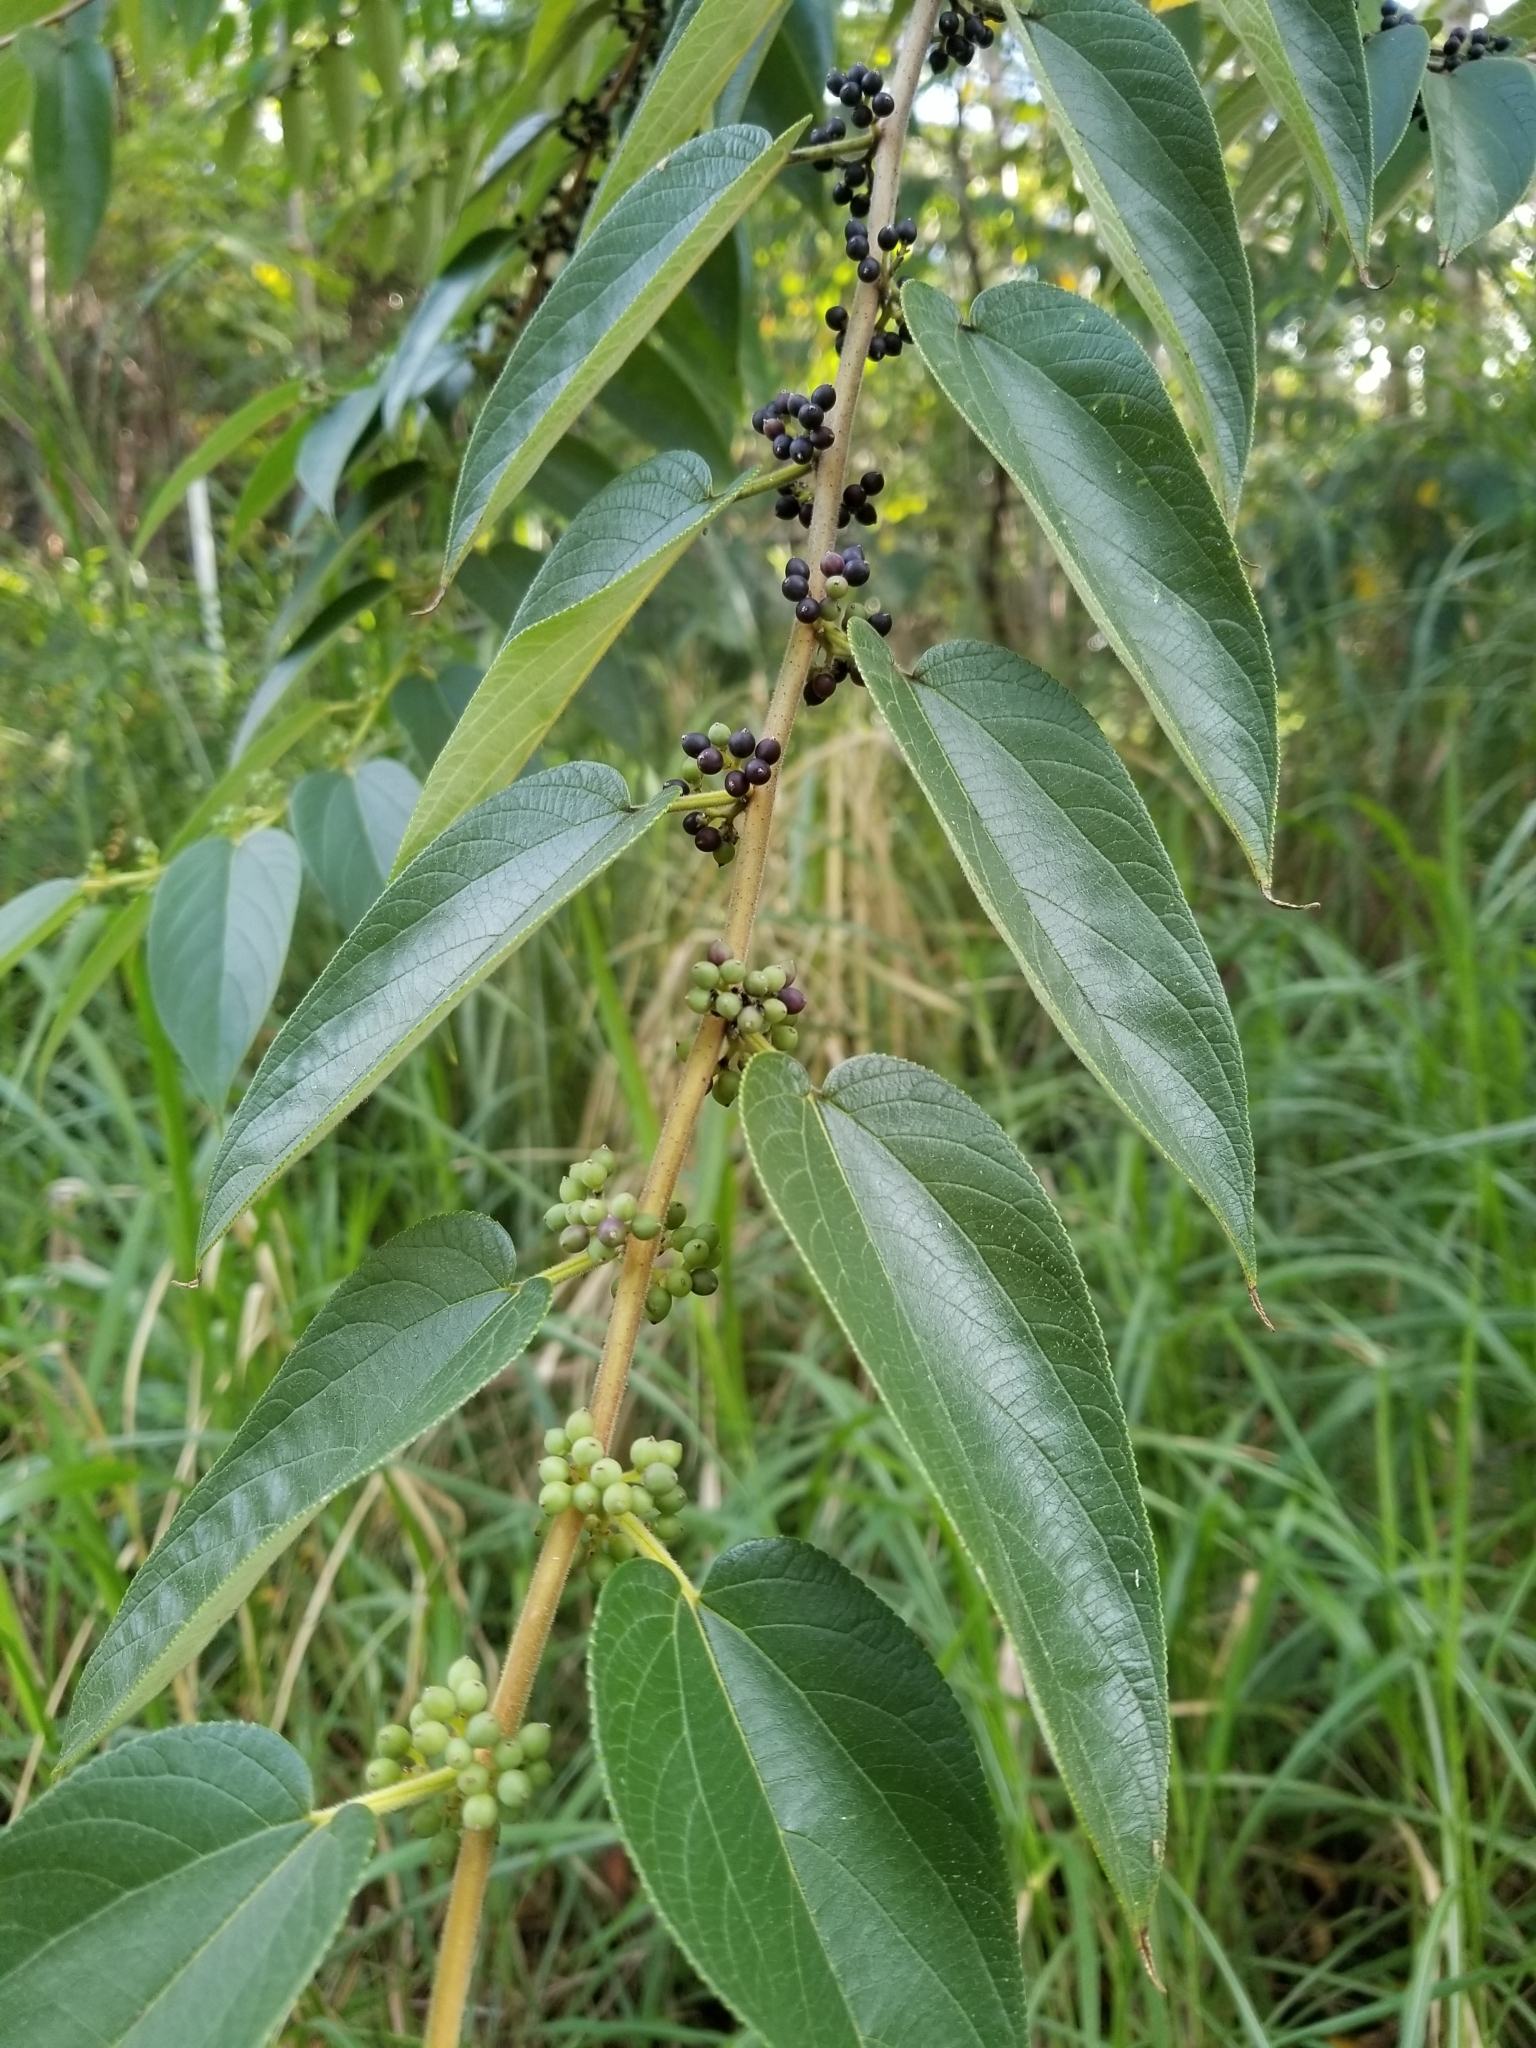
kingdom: Plantae
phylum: Tracheophyta
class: Magnoliopsida
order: Rosales
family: Cannabaceae
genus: Trema
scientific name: Trema orientale
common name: Indian charcoal tree
